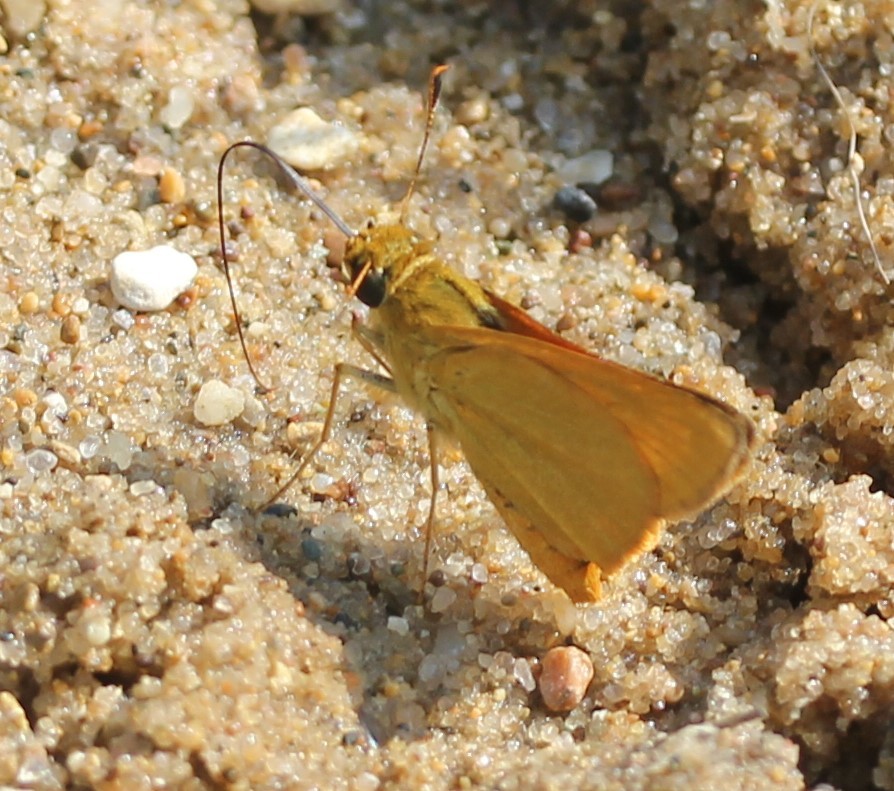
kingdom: Animalia
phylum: Arthropoda
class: Insecta
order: Lepidoptera
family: Hesperiidae
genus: Atrytone
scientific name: Atrytone delaware
